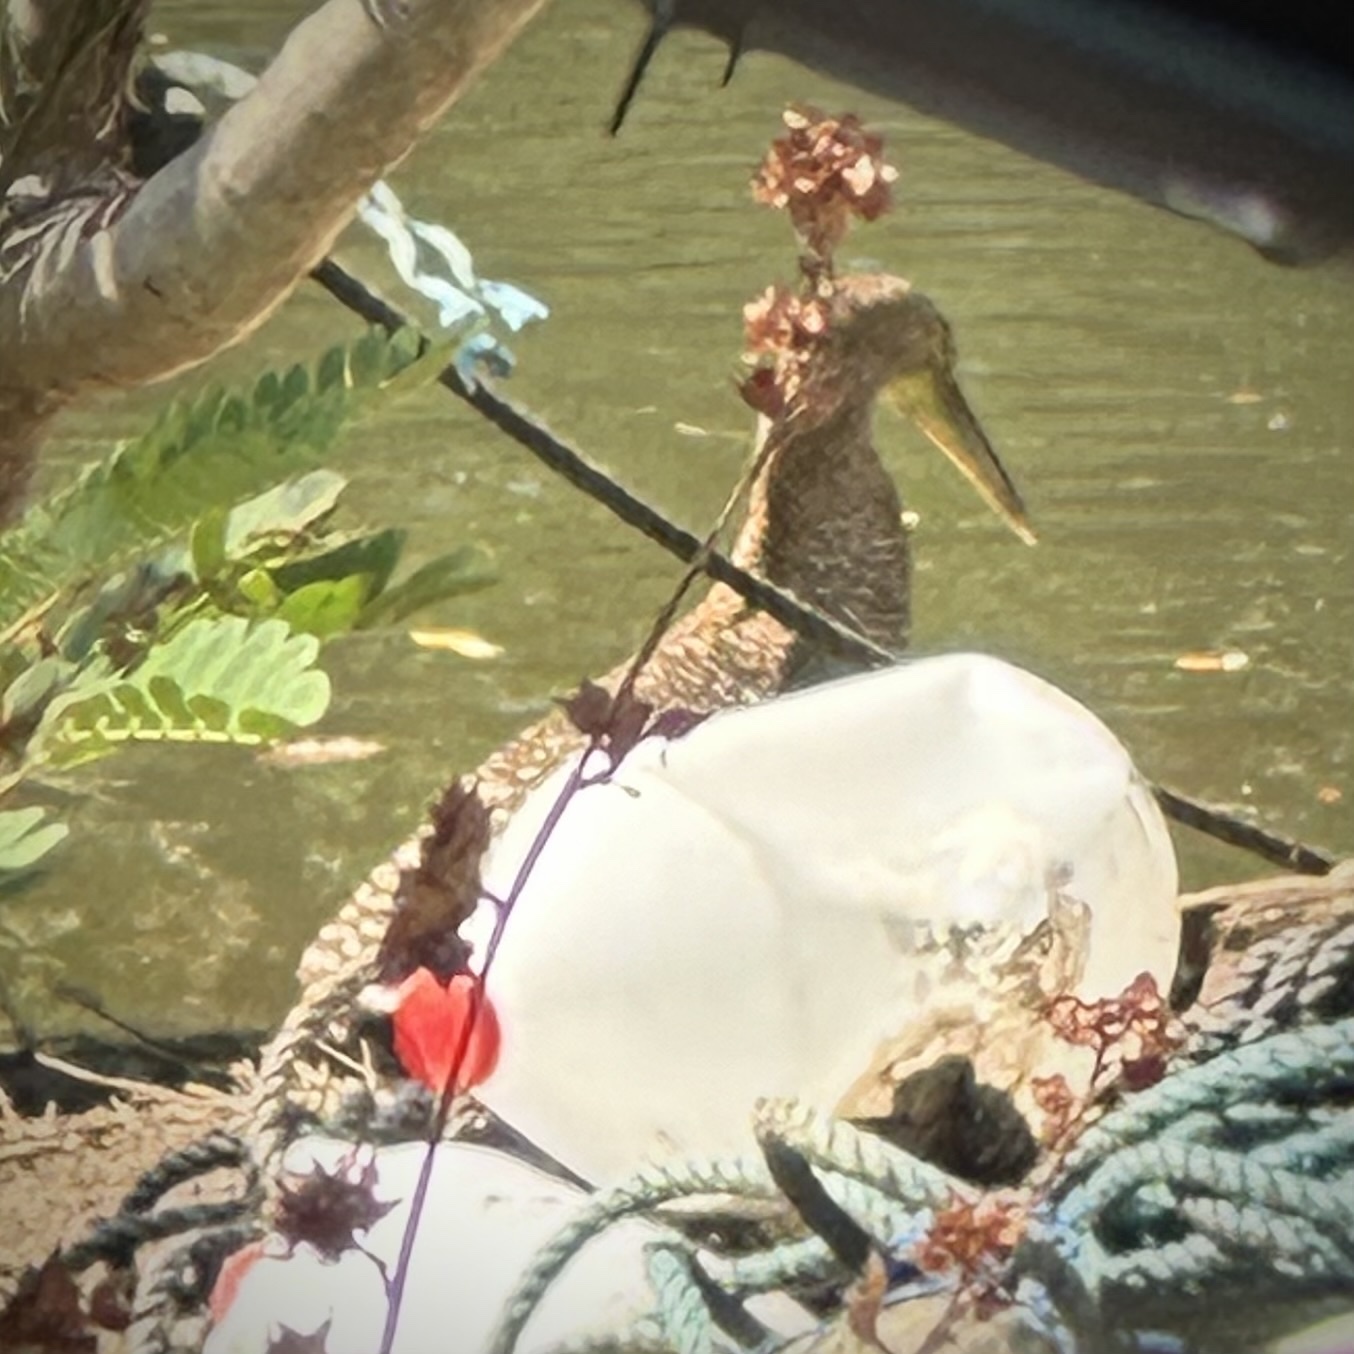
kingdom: Animalia
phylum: Chordata
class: Aves
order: Pelecaniformes
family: Ardeidae
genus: Tigrisoma
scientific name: Tigrisoma mexicanum
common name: Bare-throated tiger-heron
